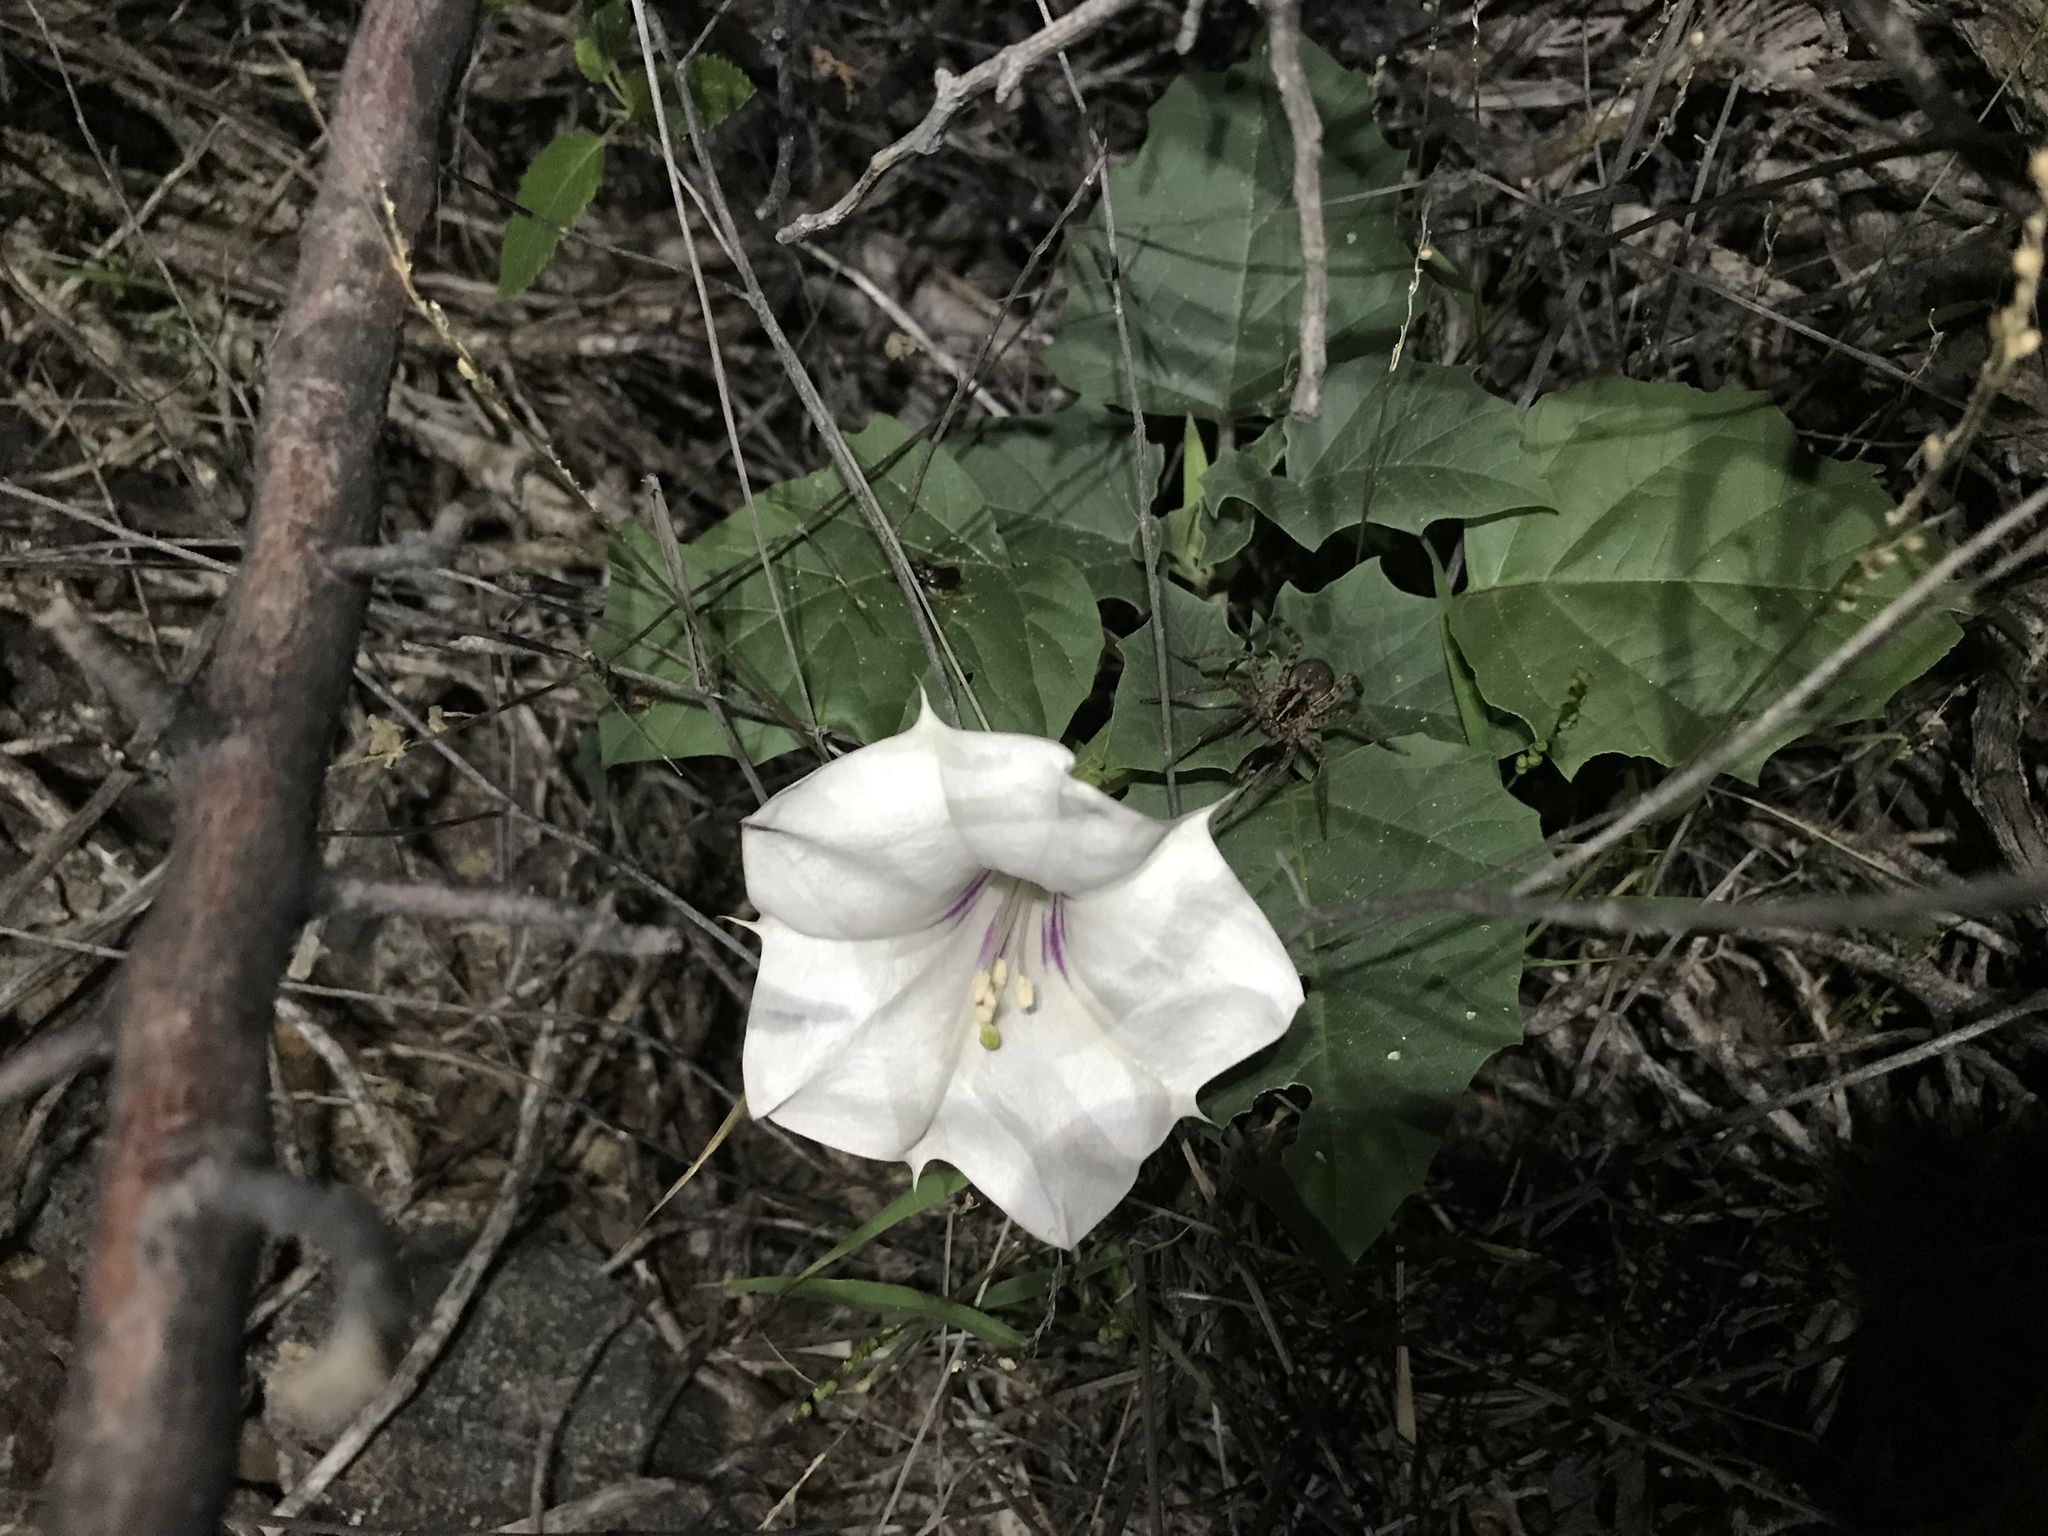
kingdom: Plantae
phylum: Tracheophyta
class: Magnoliopsida
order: Solanales
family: Solanaceae
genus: Datura
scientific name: Datura discolor
